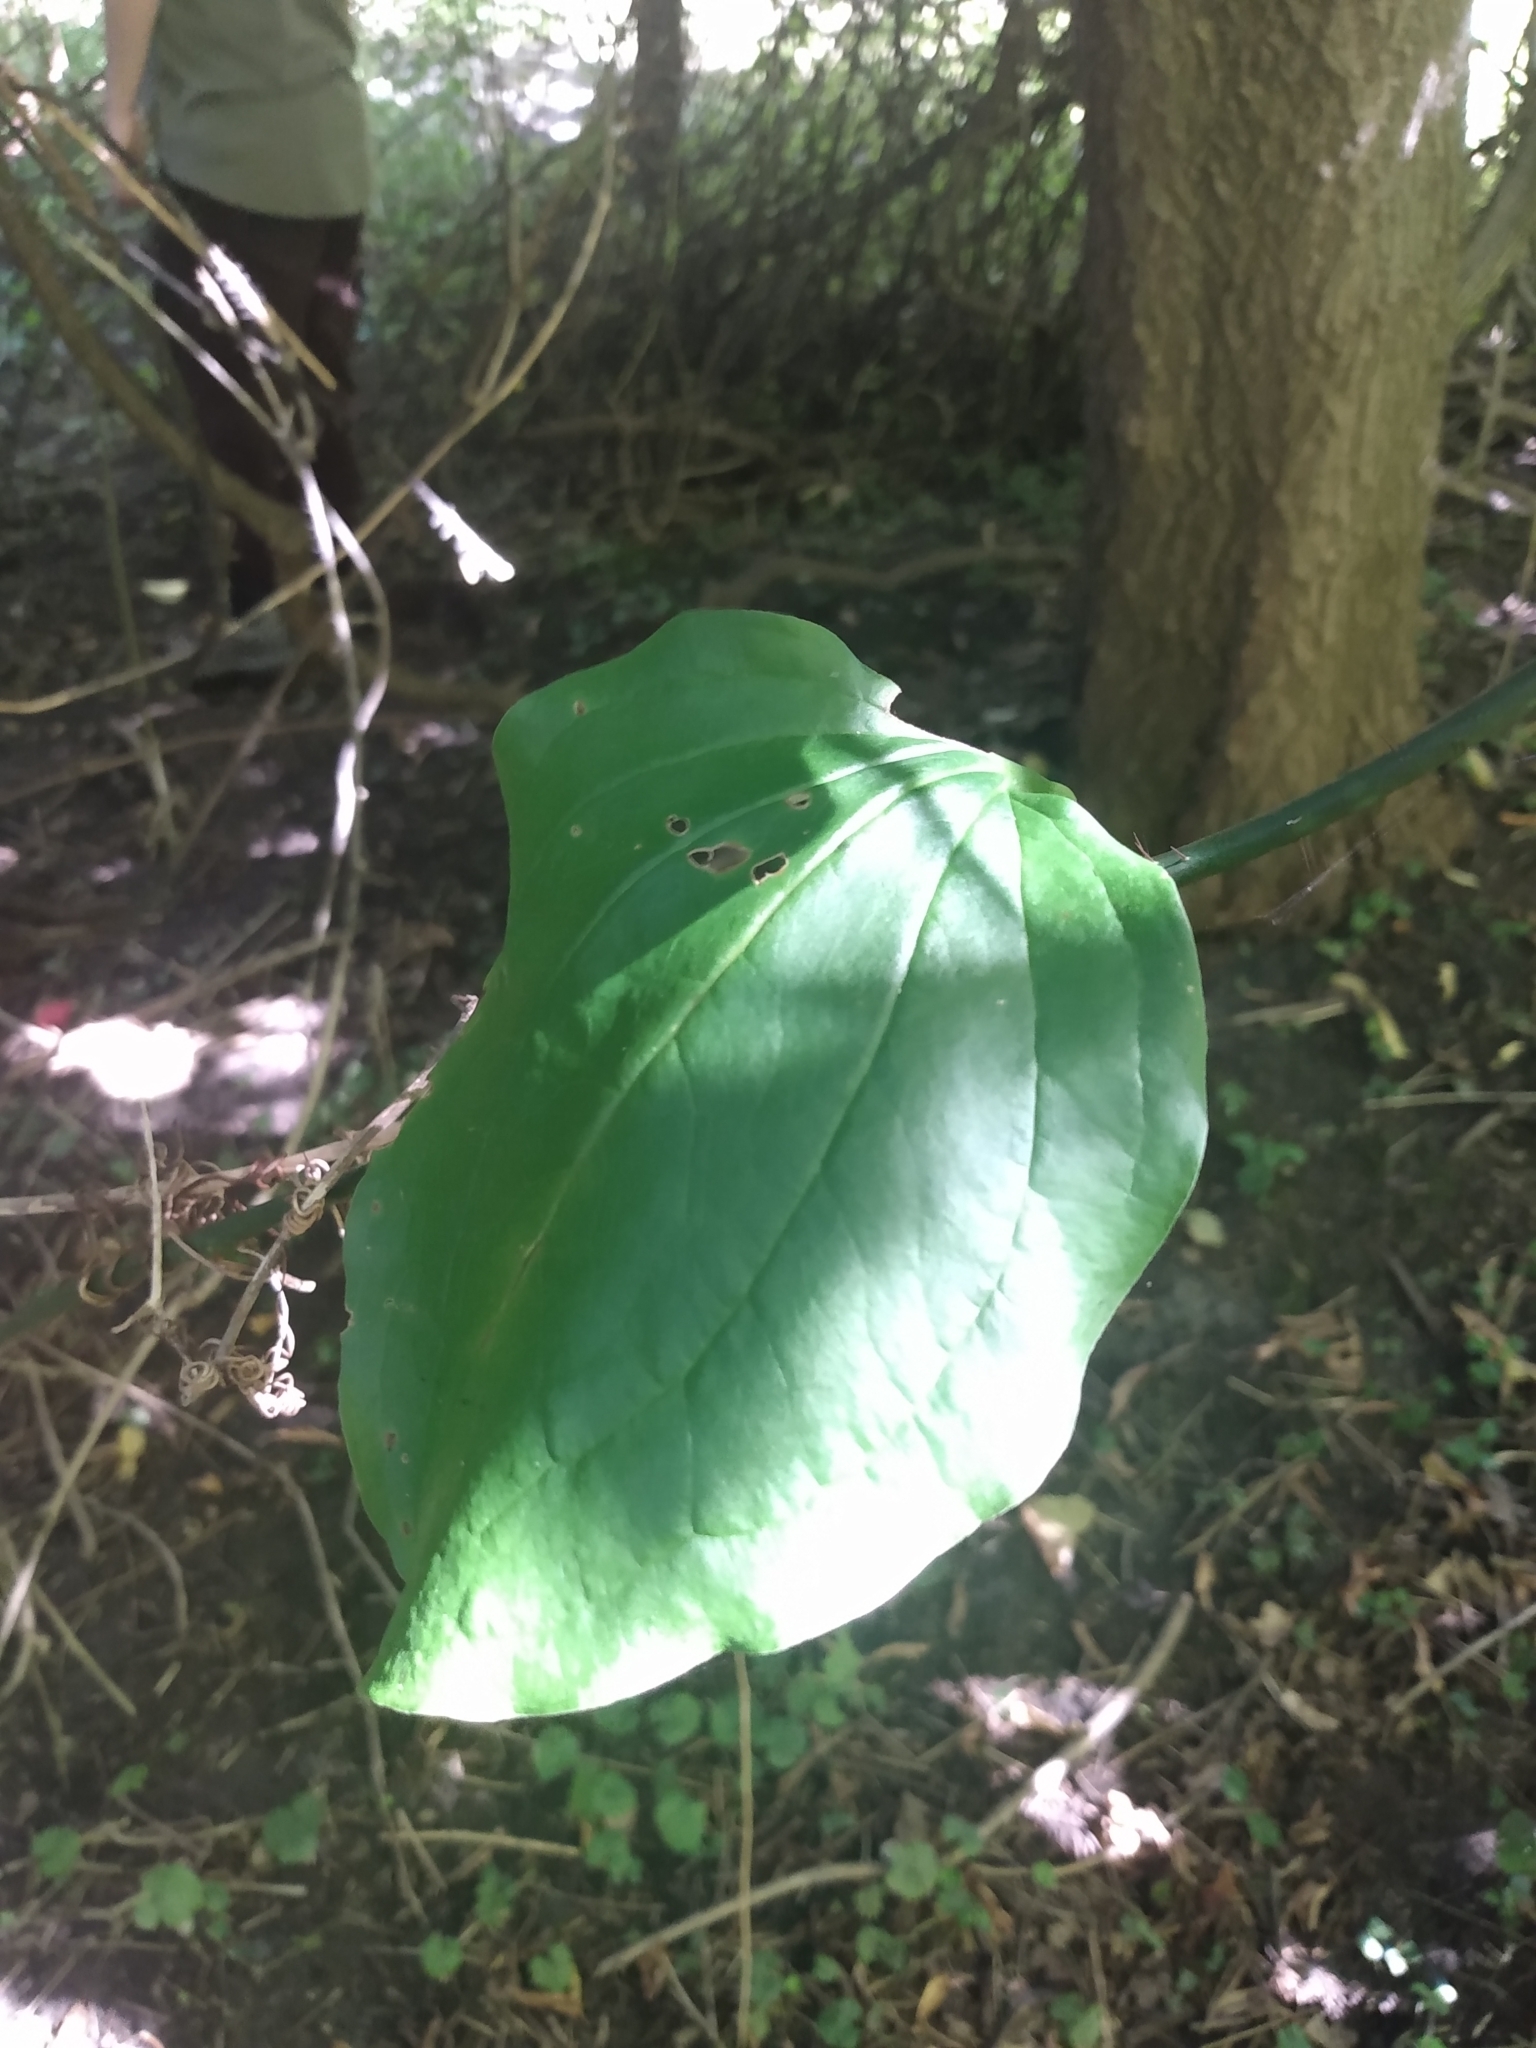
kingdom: Plantae
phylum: Tracheophyta
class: Liliopsida
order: Liliales
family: Smilacaceae
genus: Smilax
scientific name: Smilax tamnoides
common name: Hellfetter
